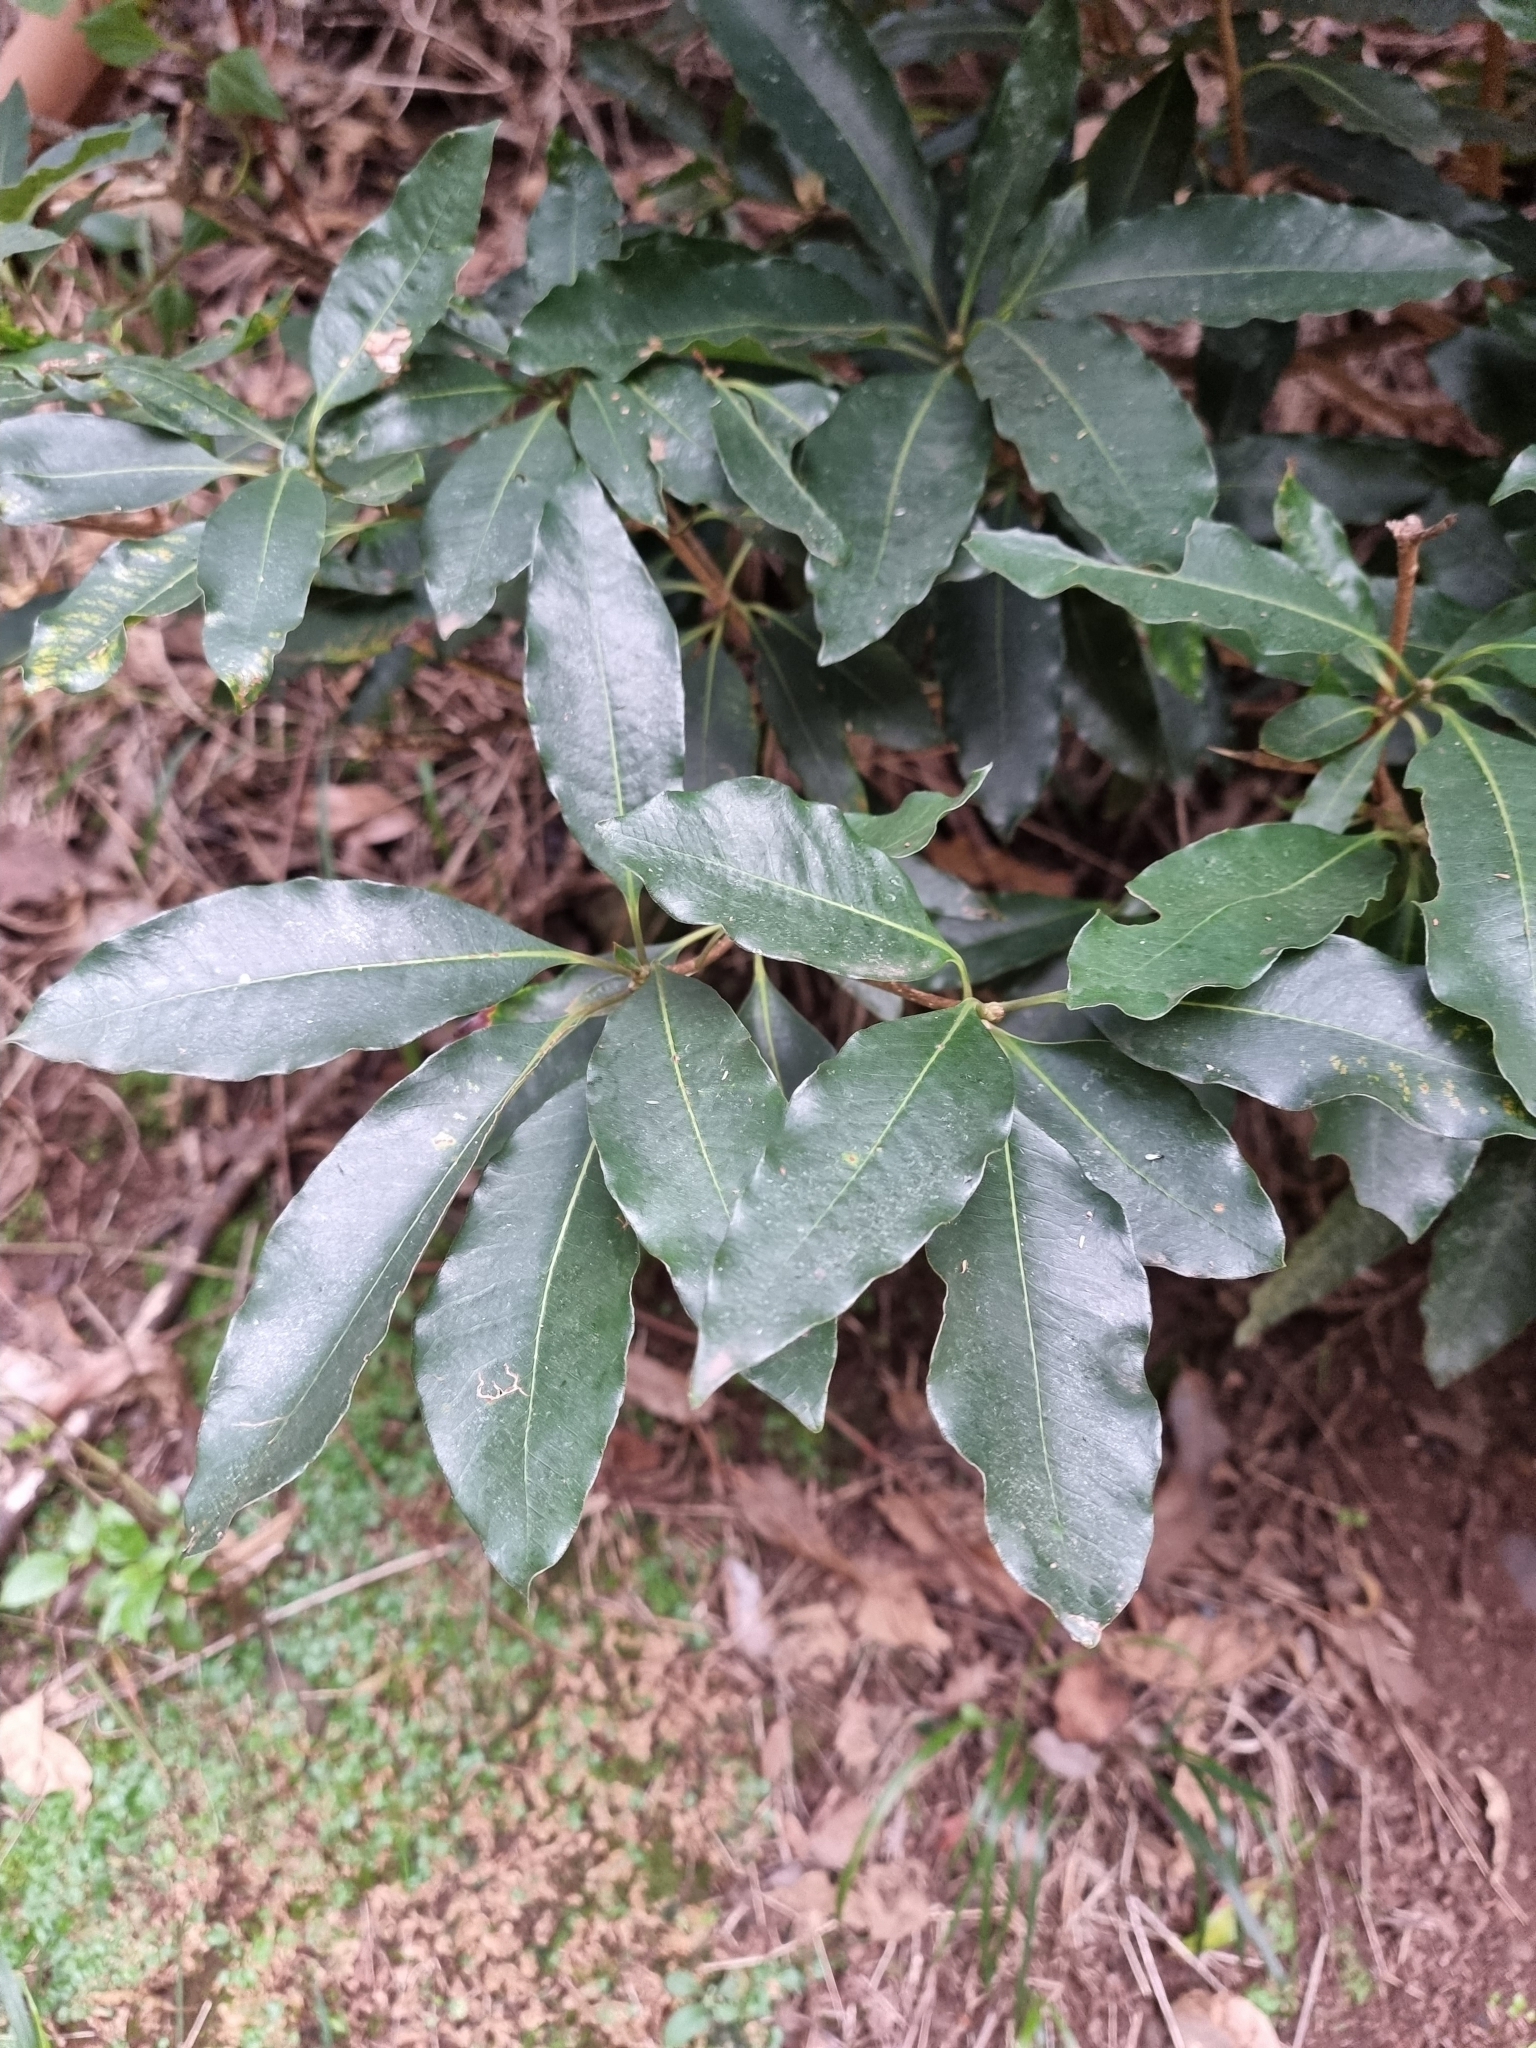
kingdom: Plantae
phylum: Tracheophyta
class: Magnoliopsida
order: Apiales
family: Pittosporaceae
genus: Pittosporum
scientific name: Pittosporum undulatum
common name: Australian cheesewood
